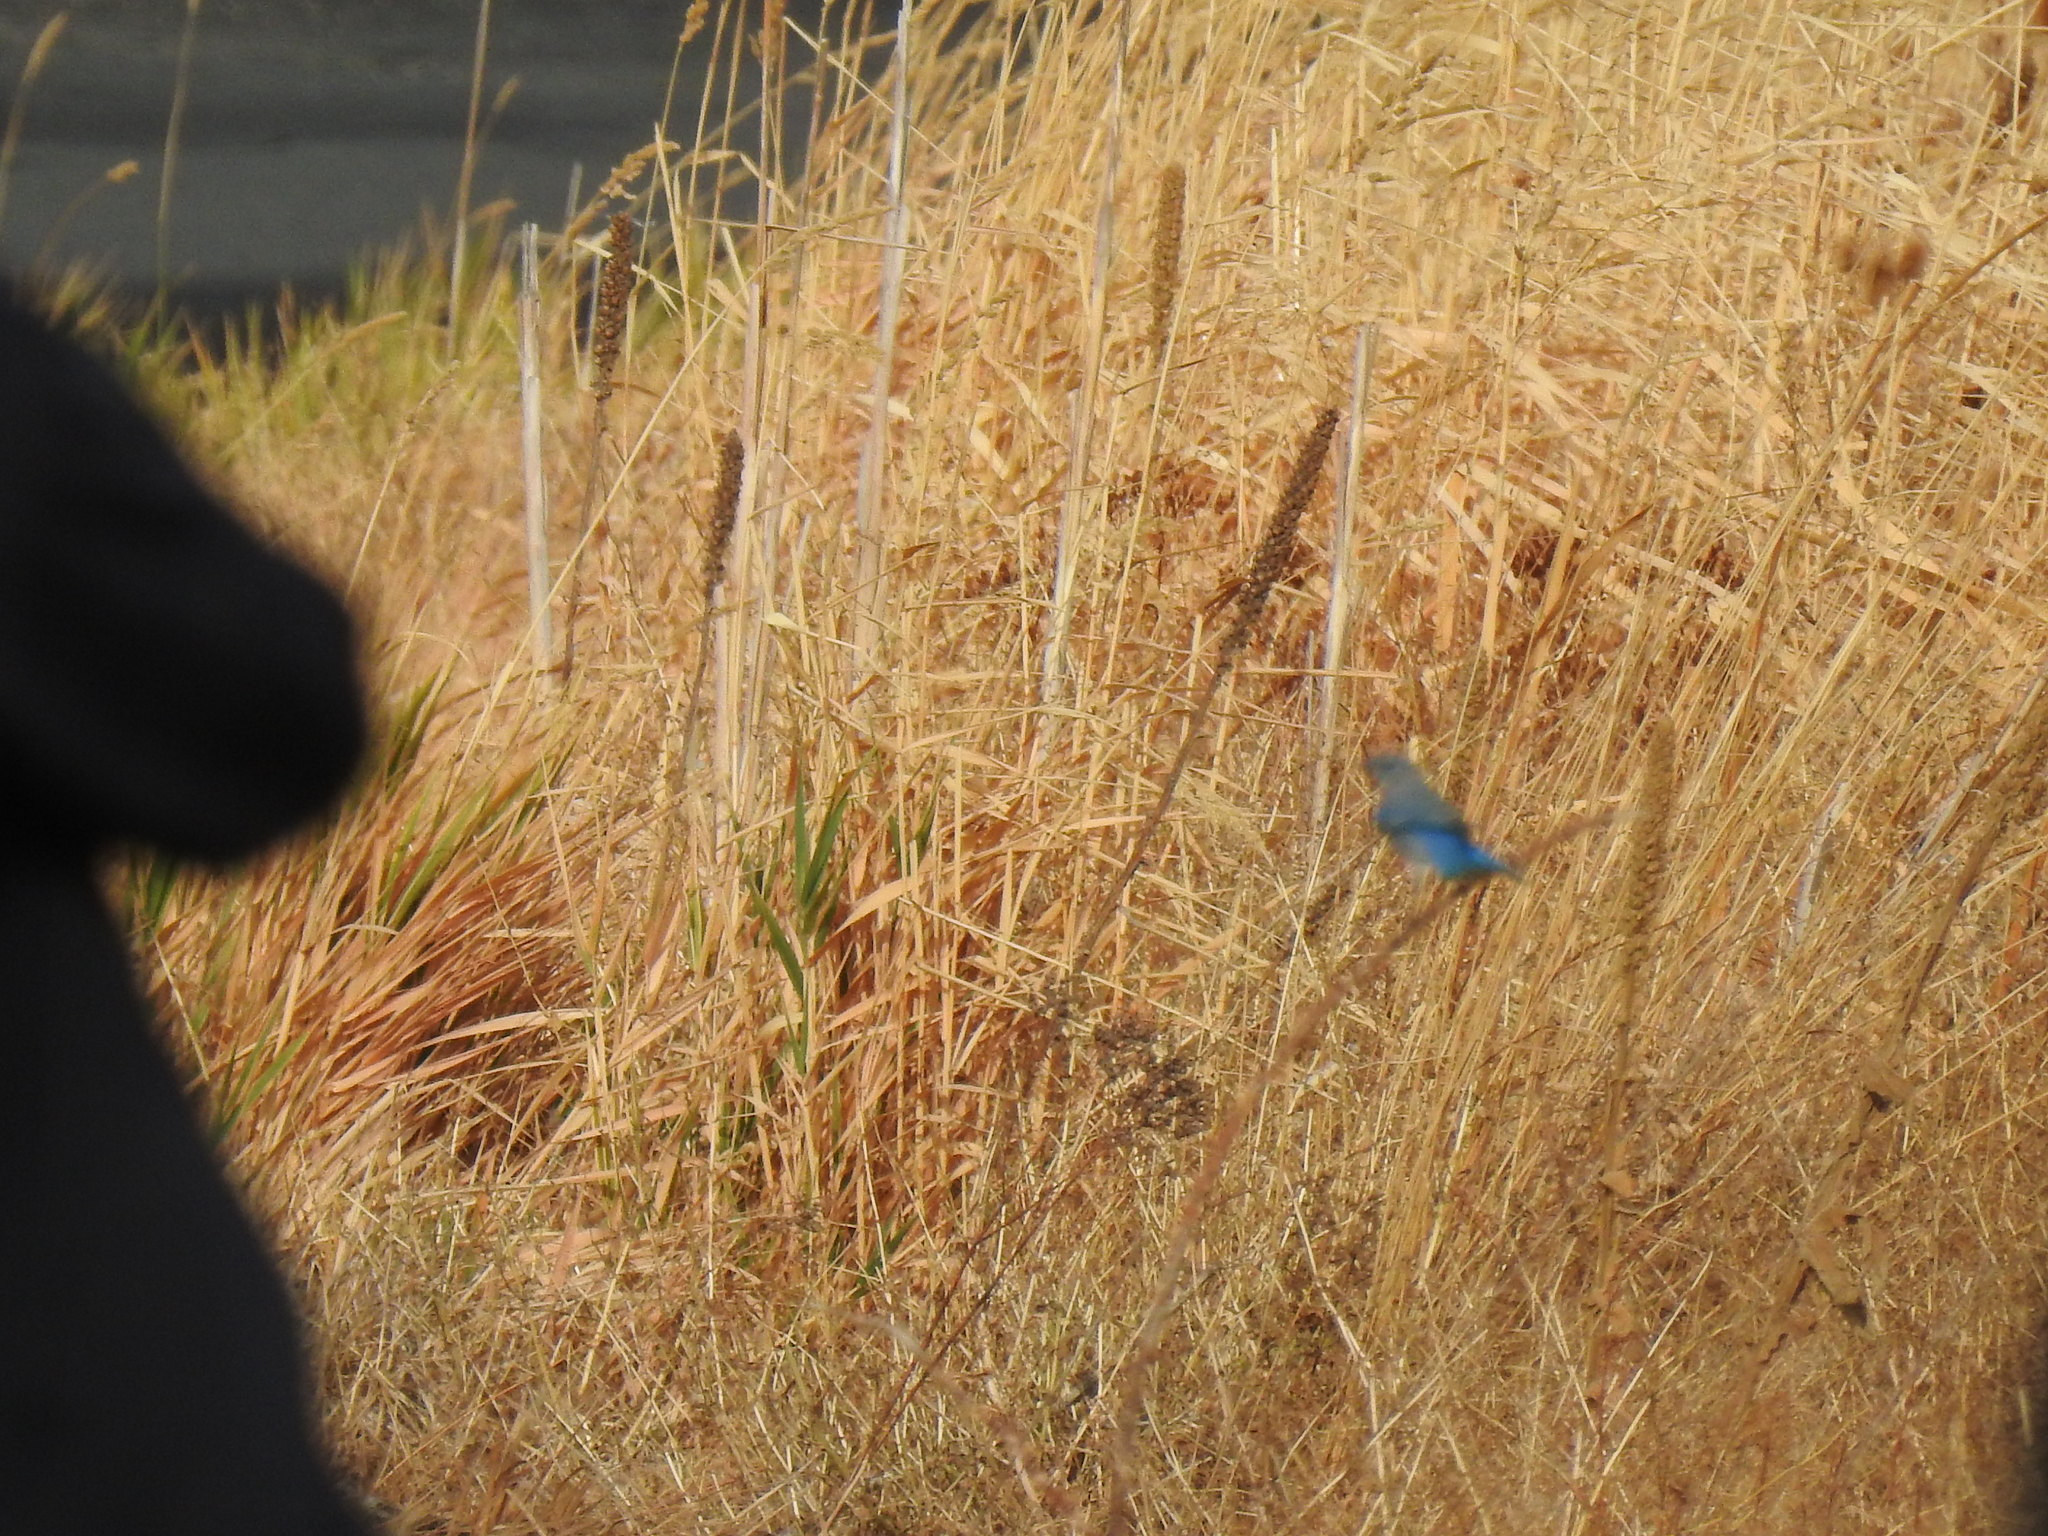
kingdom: Animalia
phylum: Chordata
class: Aves
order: Passeriformes
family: Turdidae
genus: Sialia
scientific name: Sialia currucoides
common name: Mountain bluebird
